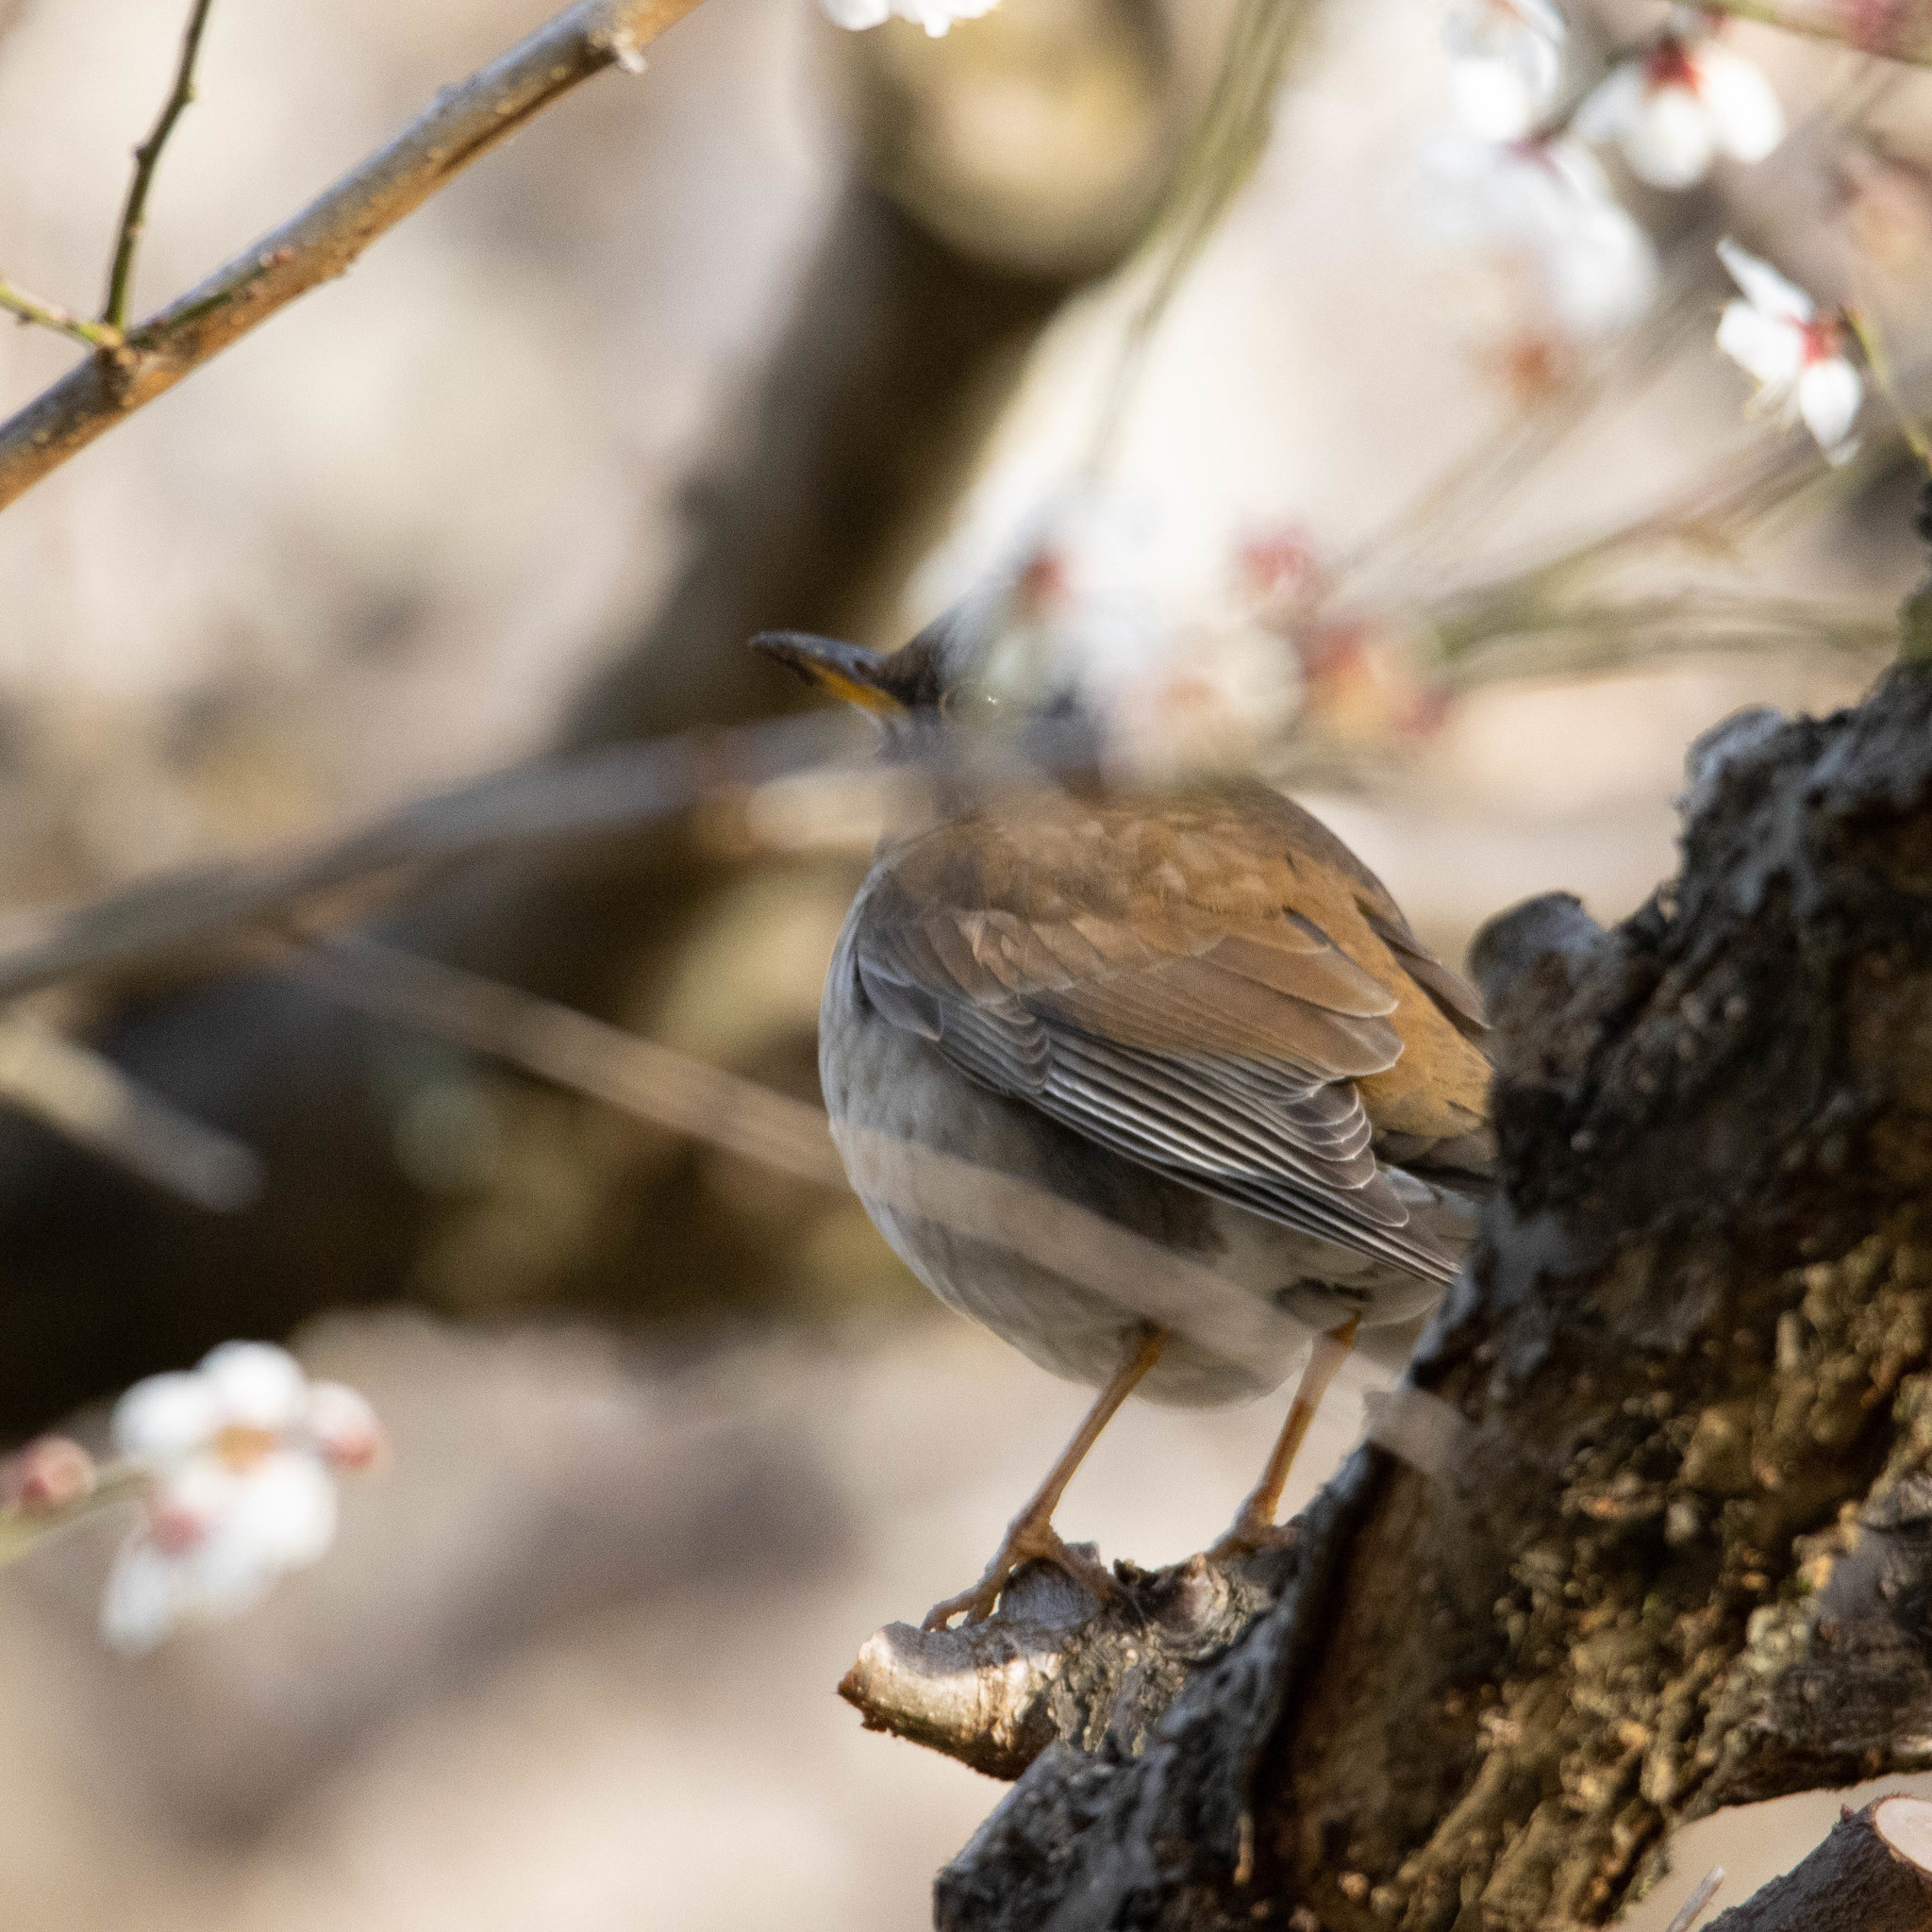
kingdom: Animalia
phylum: Chordata
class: Aves
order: Passeriformes
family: Turdidae
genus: Turdus
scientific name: Turdus pallidus
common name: Pale thrush
